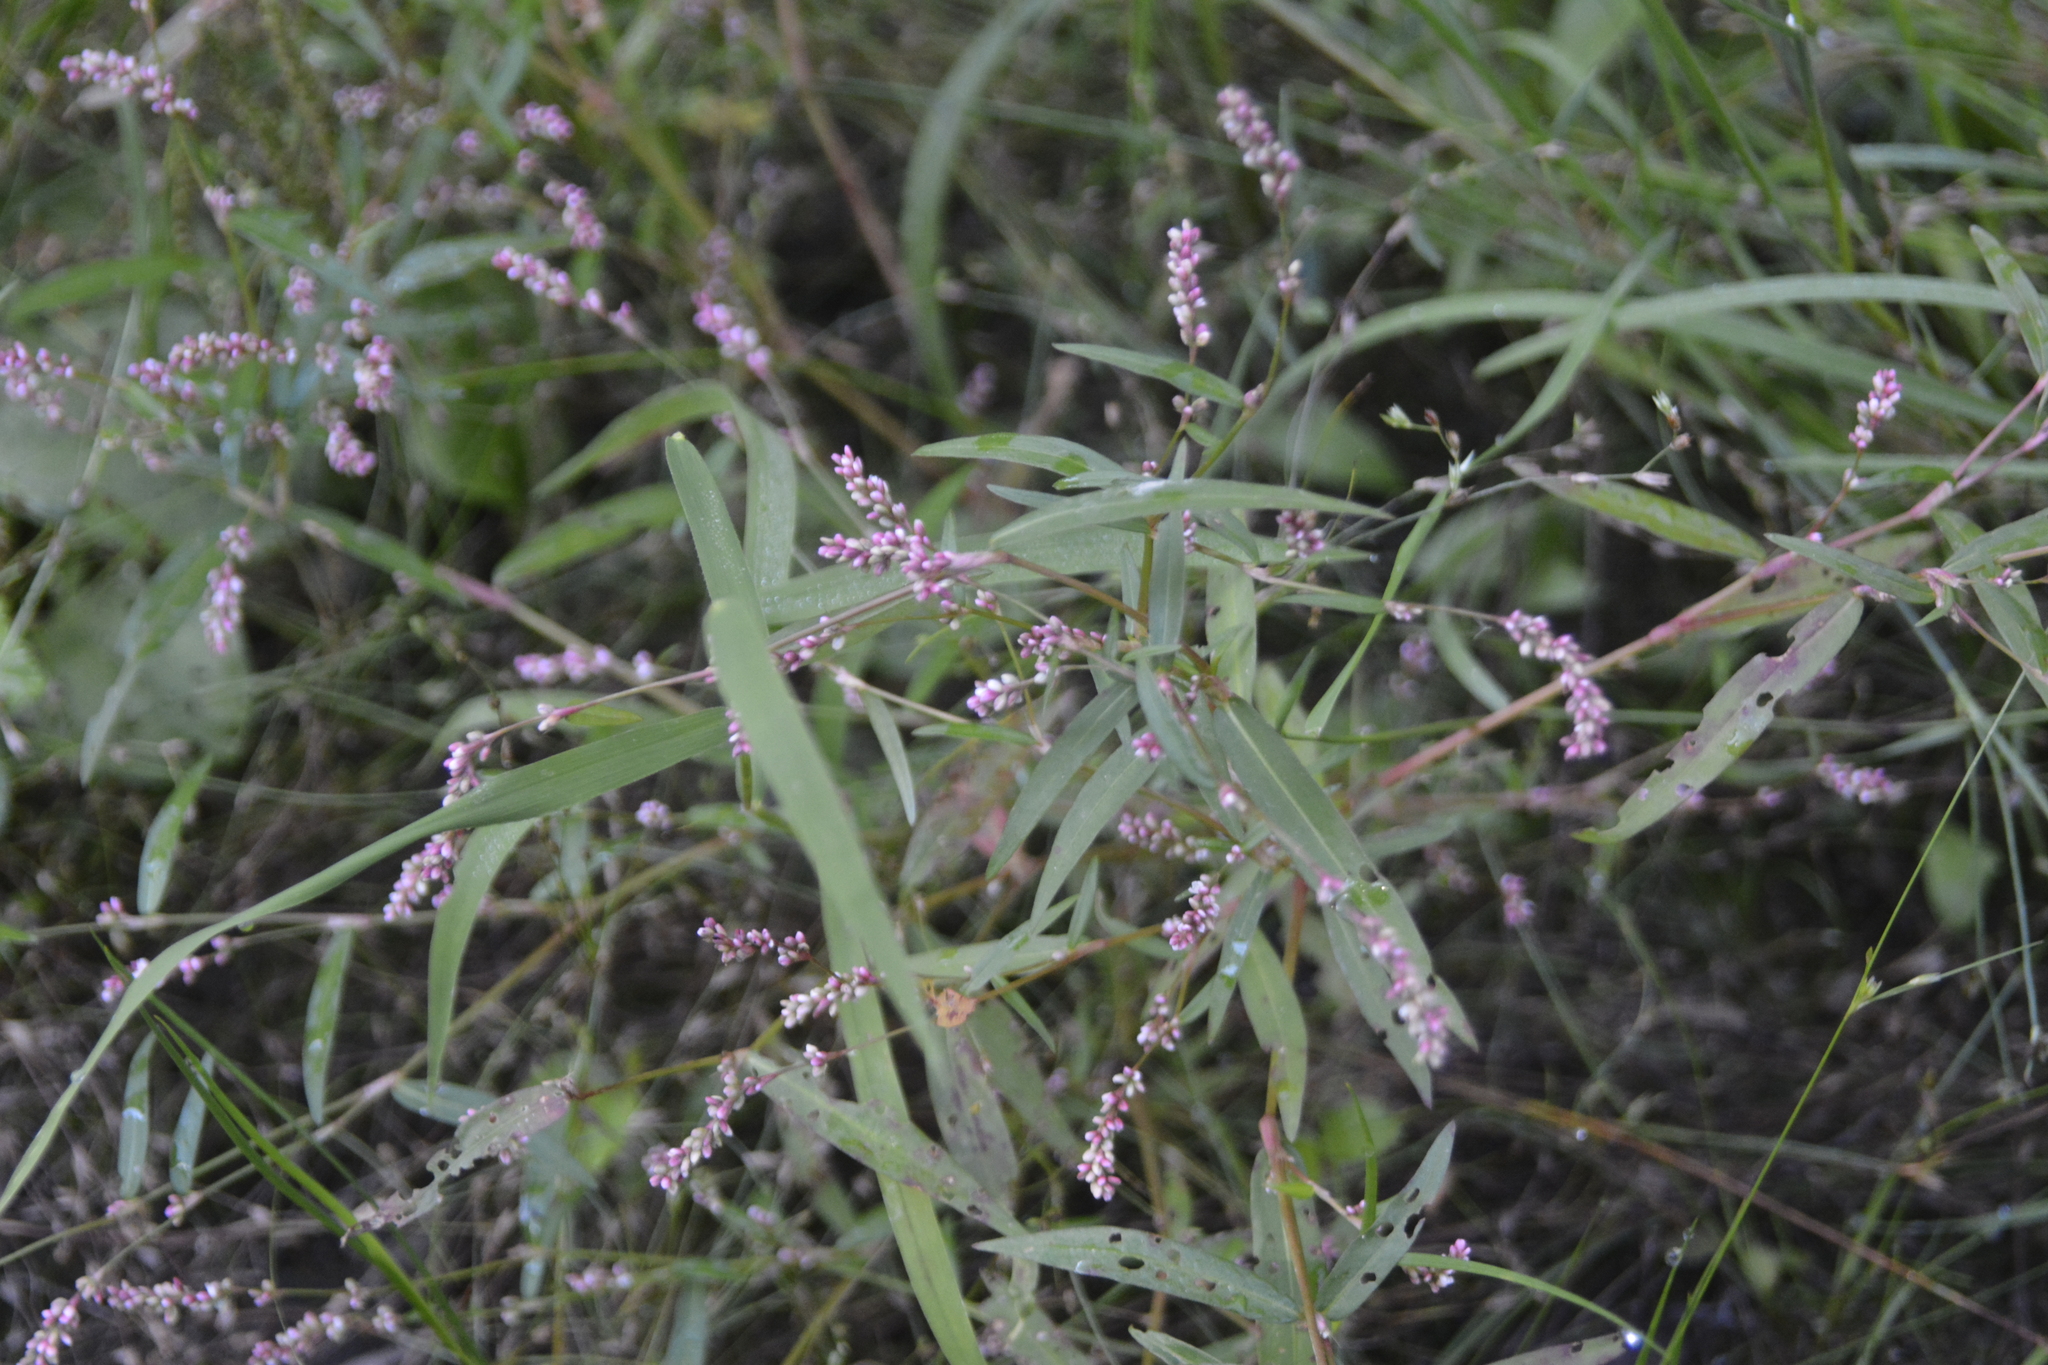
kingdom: Plantae
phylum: Tracheophyta
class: Magnoliopsida
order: Caryophyllales
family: Polygonaceae
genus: Persicaria
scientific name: Persicaria minor
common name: Small water-pepper
